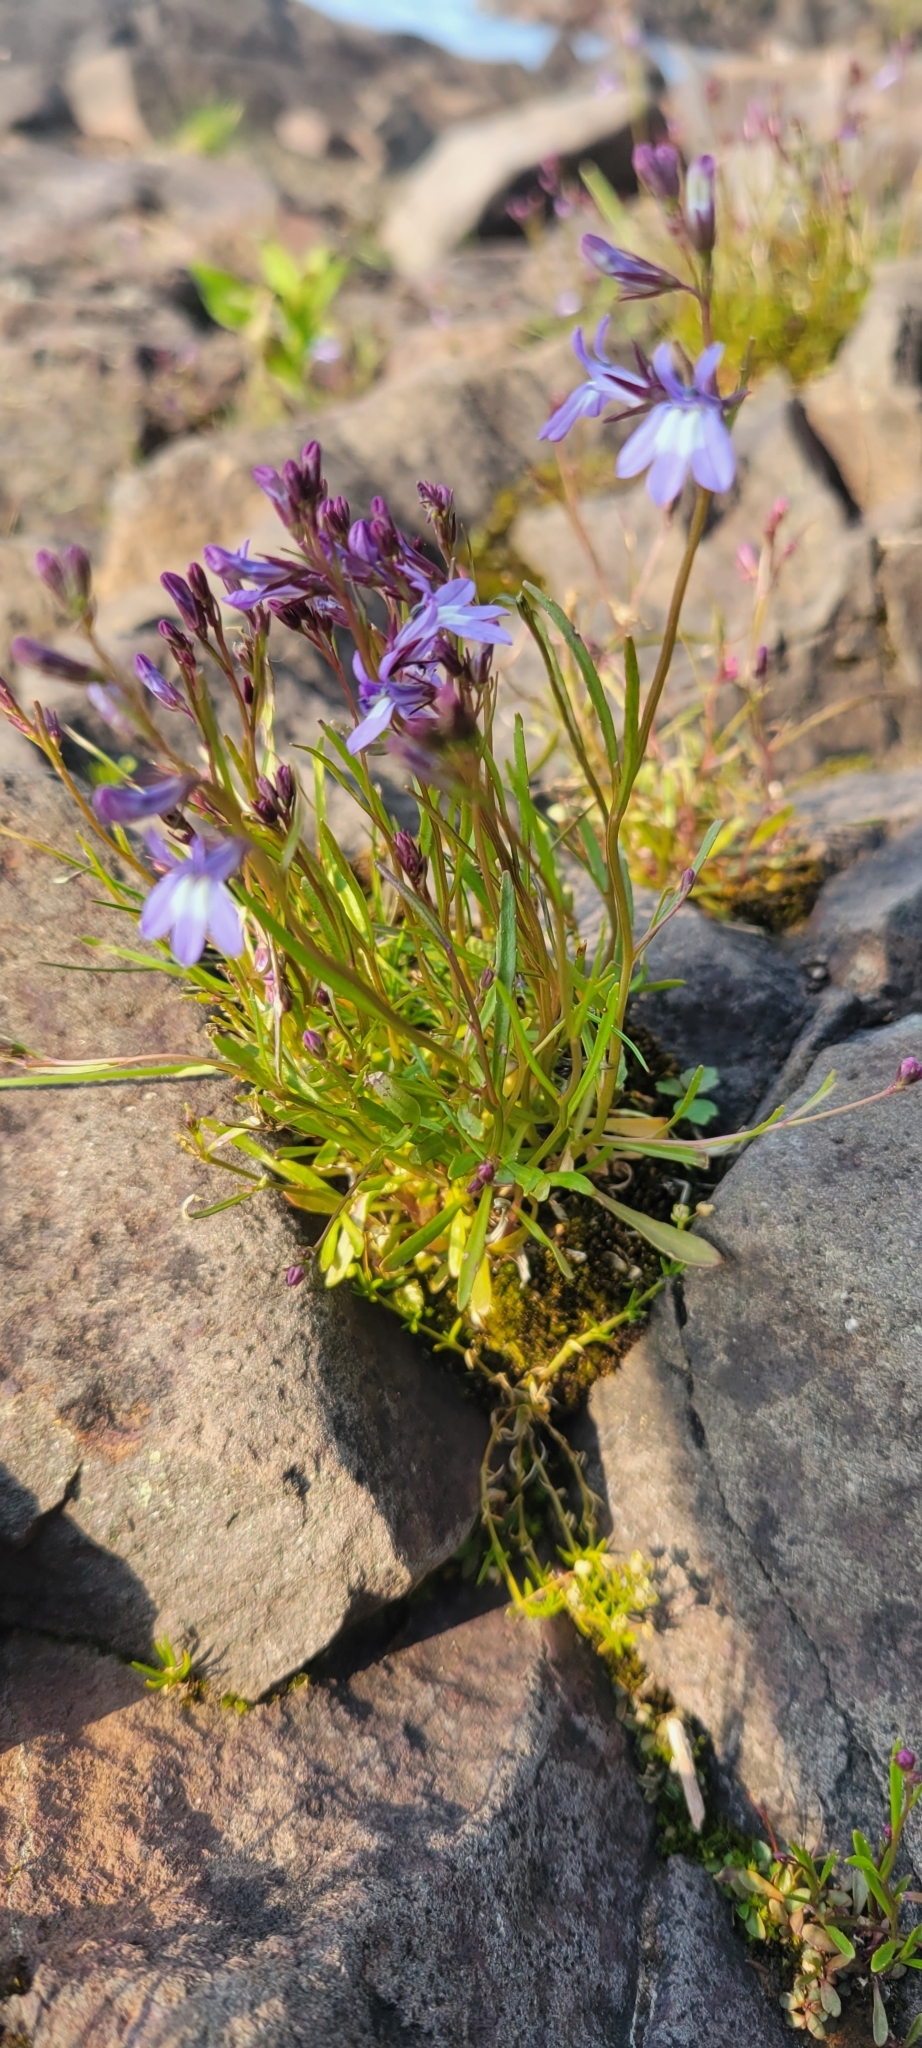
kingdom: Plantae
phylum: Tracheophyta
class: Magnoliopsida
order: Asterales
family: Campanulaceae
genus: Lobelia
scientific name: Lobelia kalmii
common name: Kalm's lobelia
